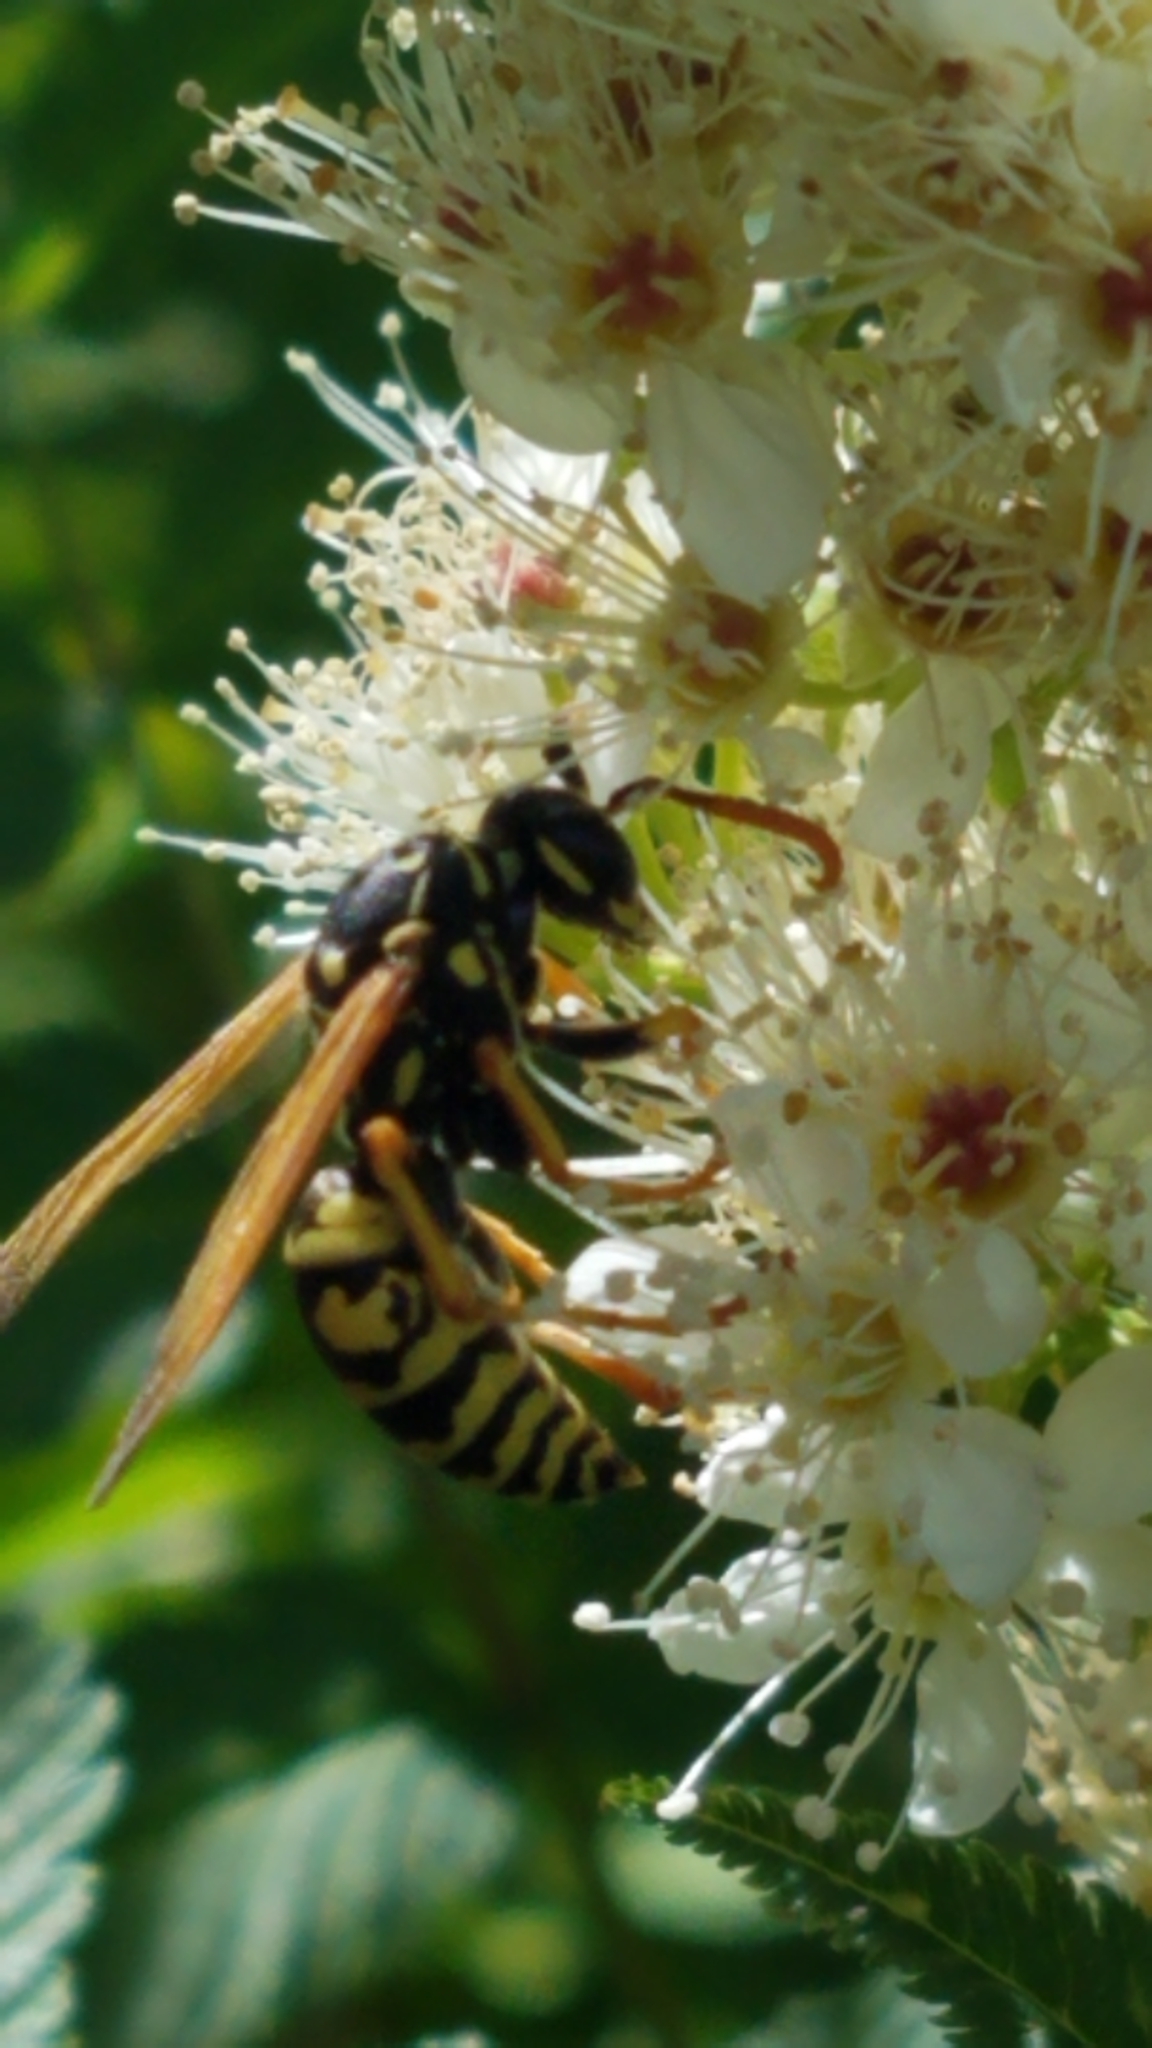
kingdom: Animalia
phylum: Arthropoda
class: Insecta
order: Hymenoptera
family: Eumenidae
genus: Polistes
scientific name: Polistes dominula
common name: Paper wasp
